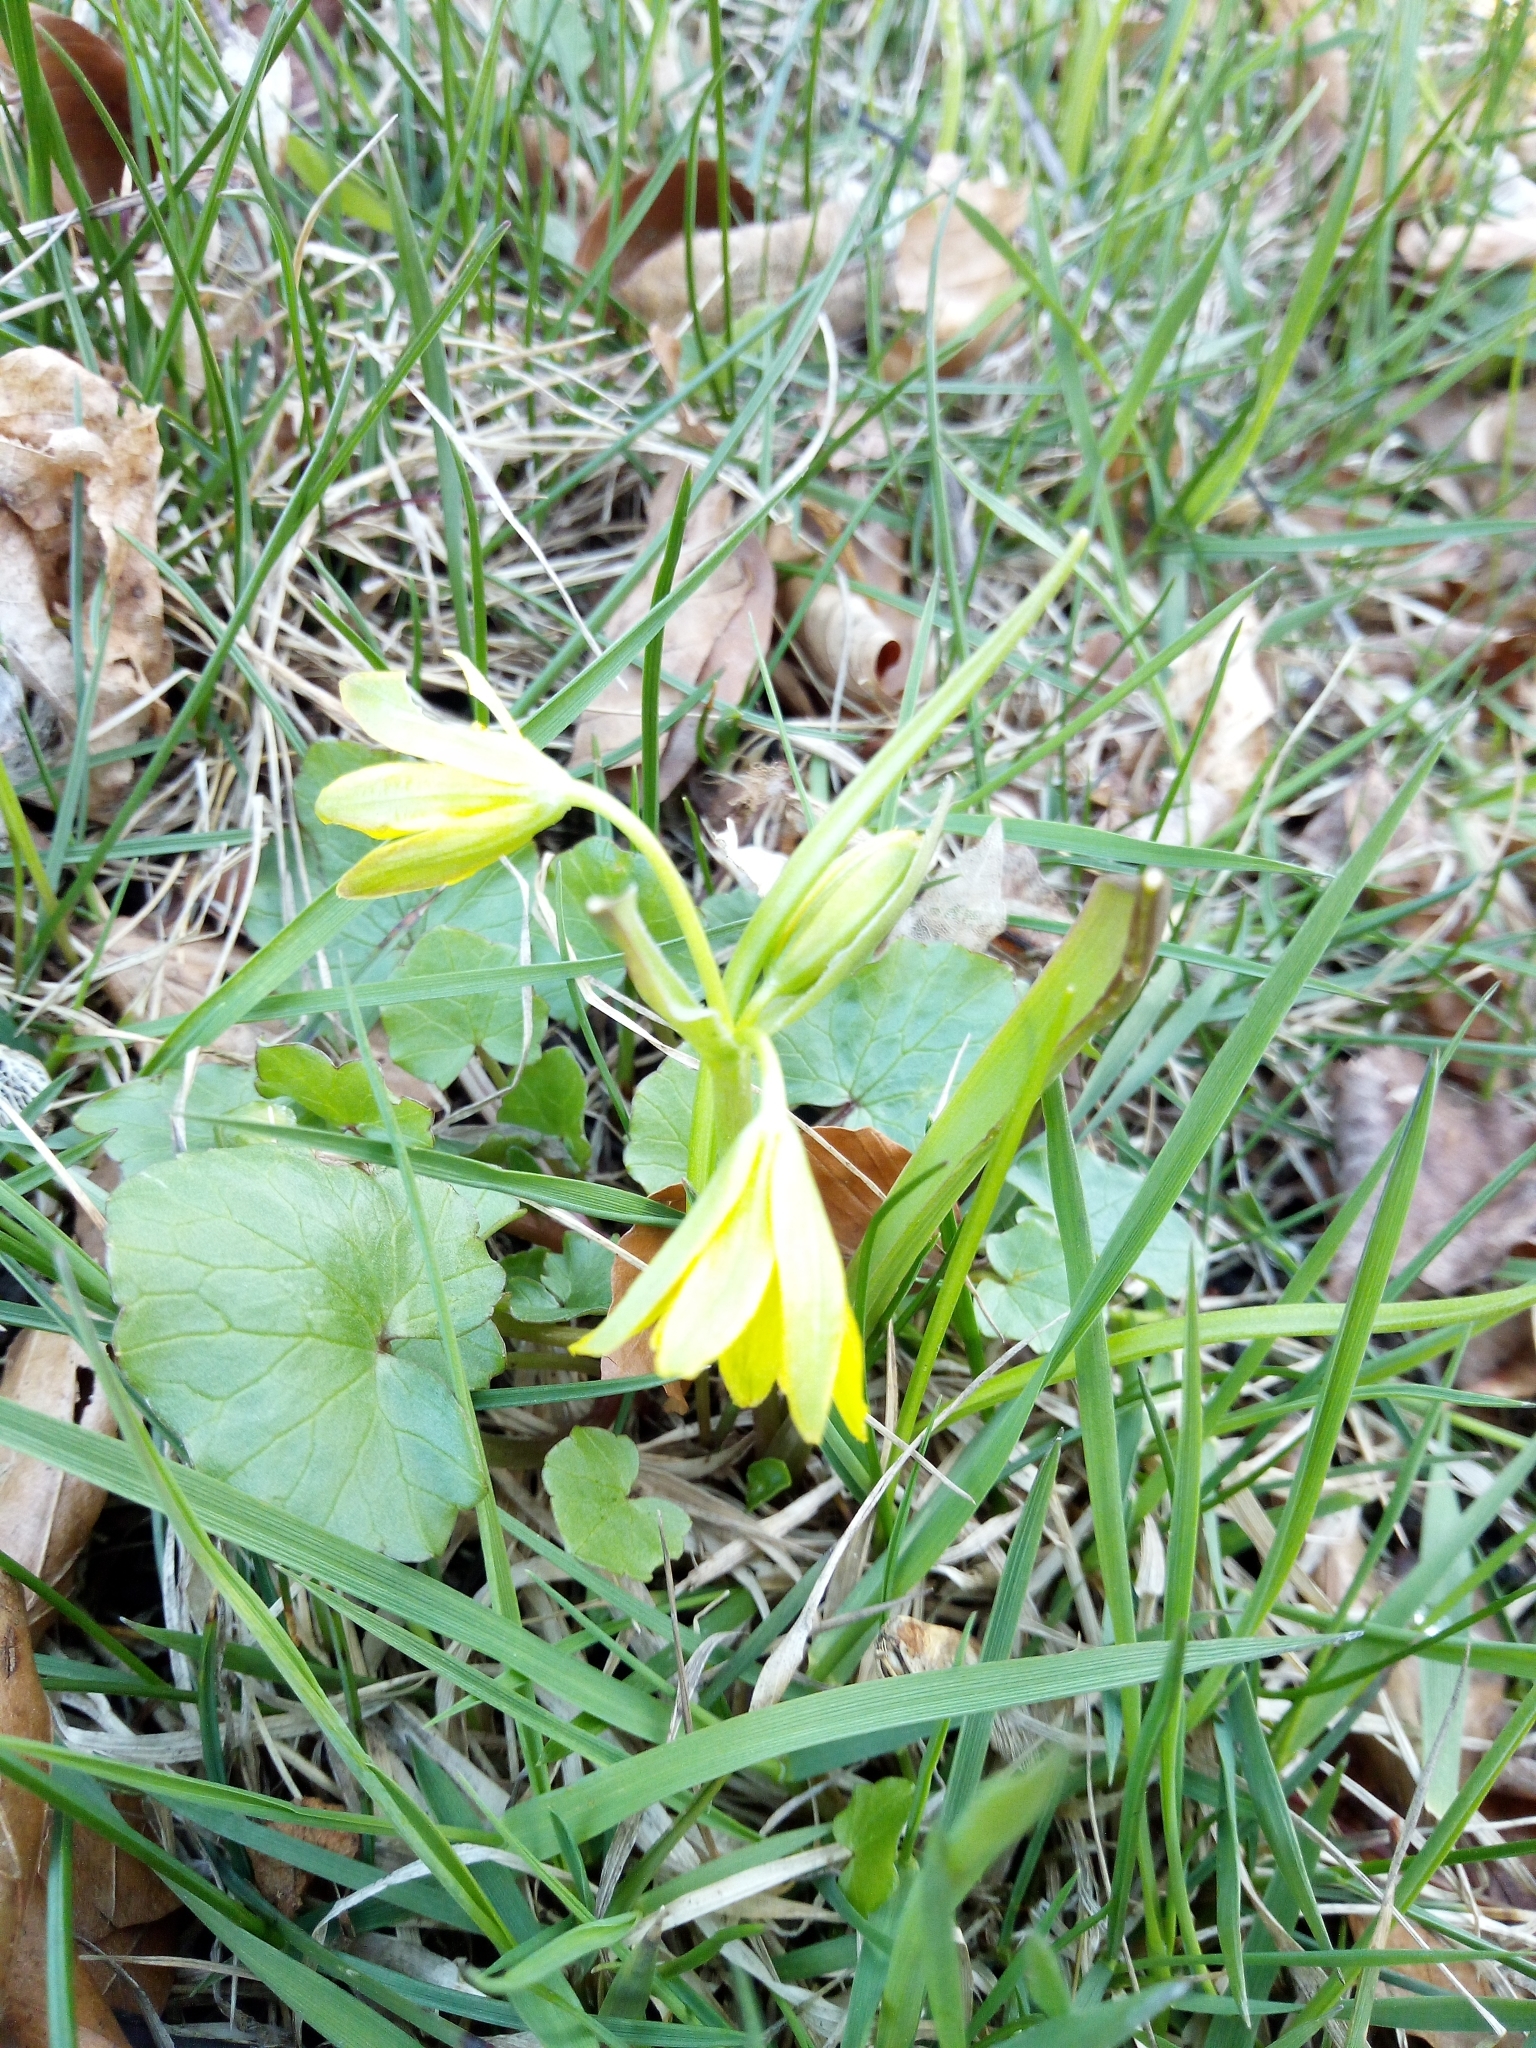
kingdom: Plantae
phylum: Tracheophyta
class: Liliopsida
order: Liliales
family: Liliaceae
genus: Gagea
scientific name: Gagea lutea
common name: Yellow star-of-bethlehem
